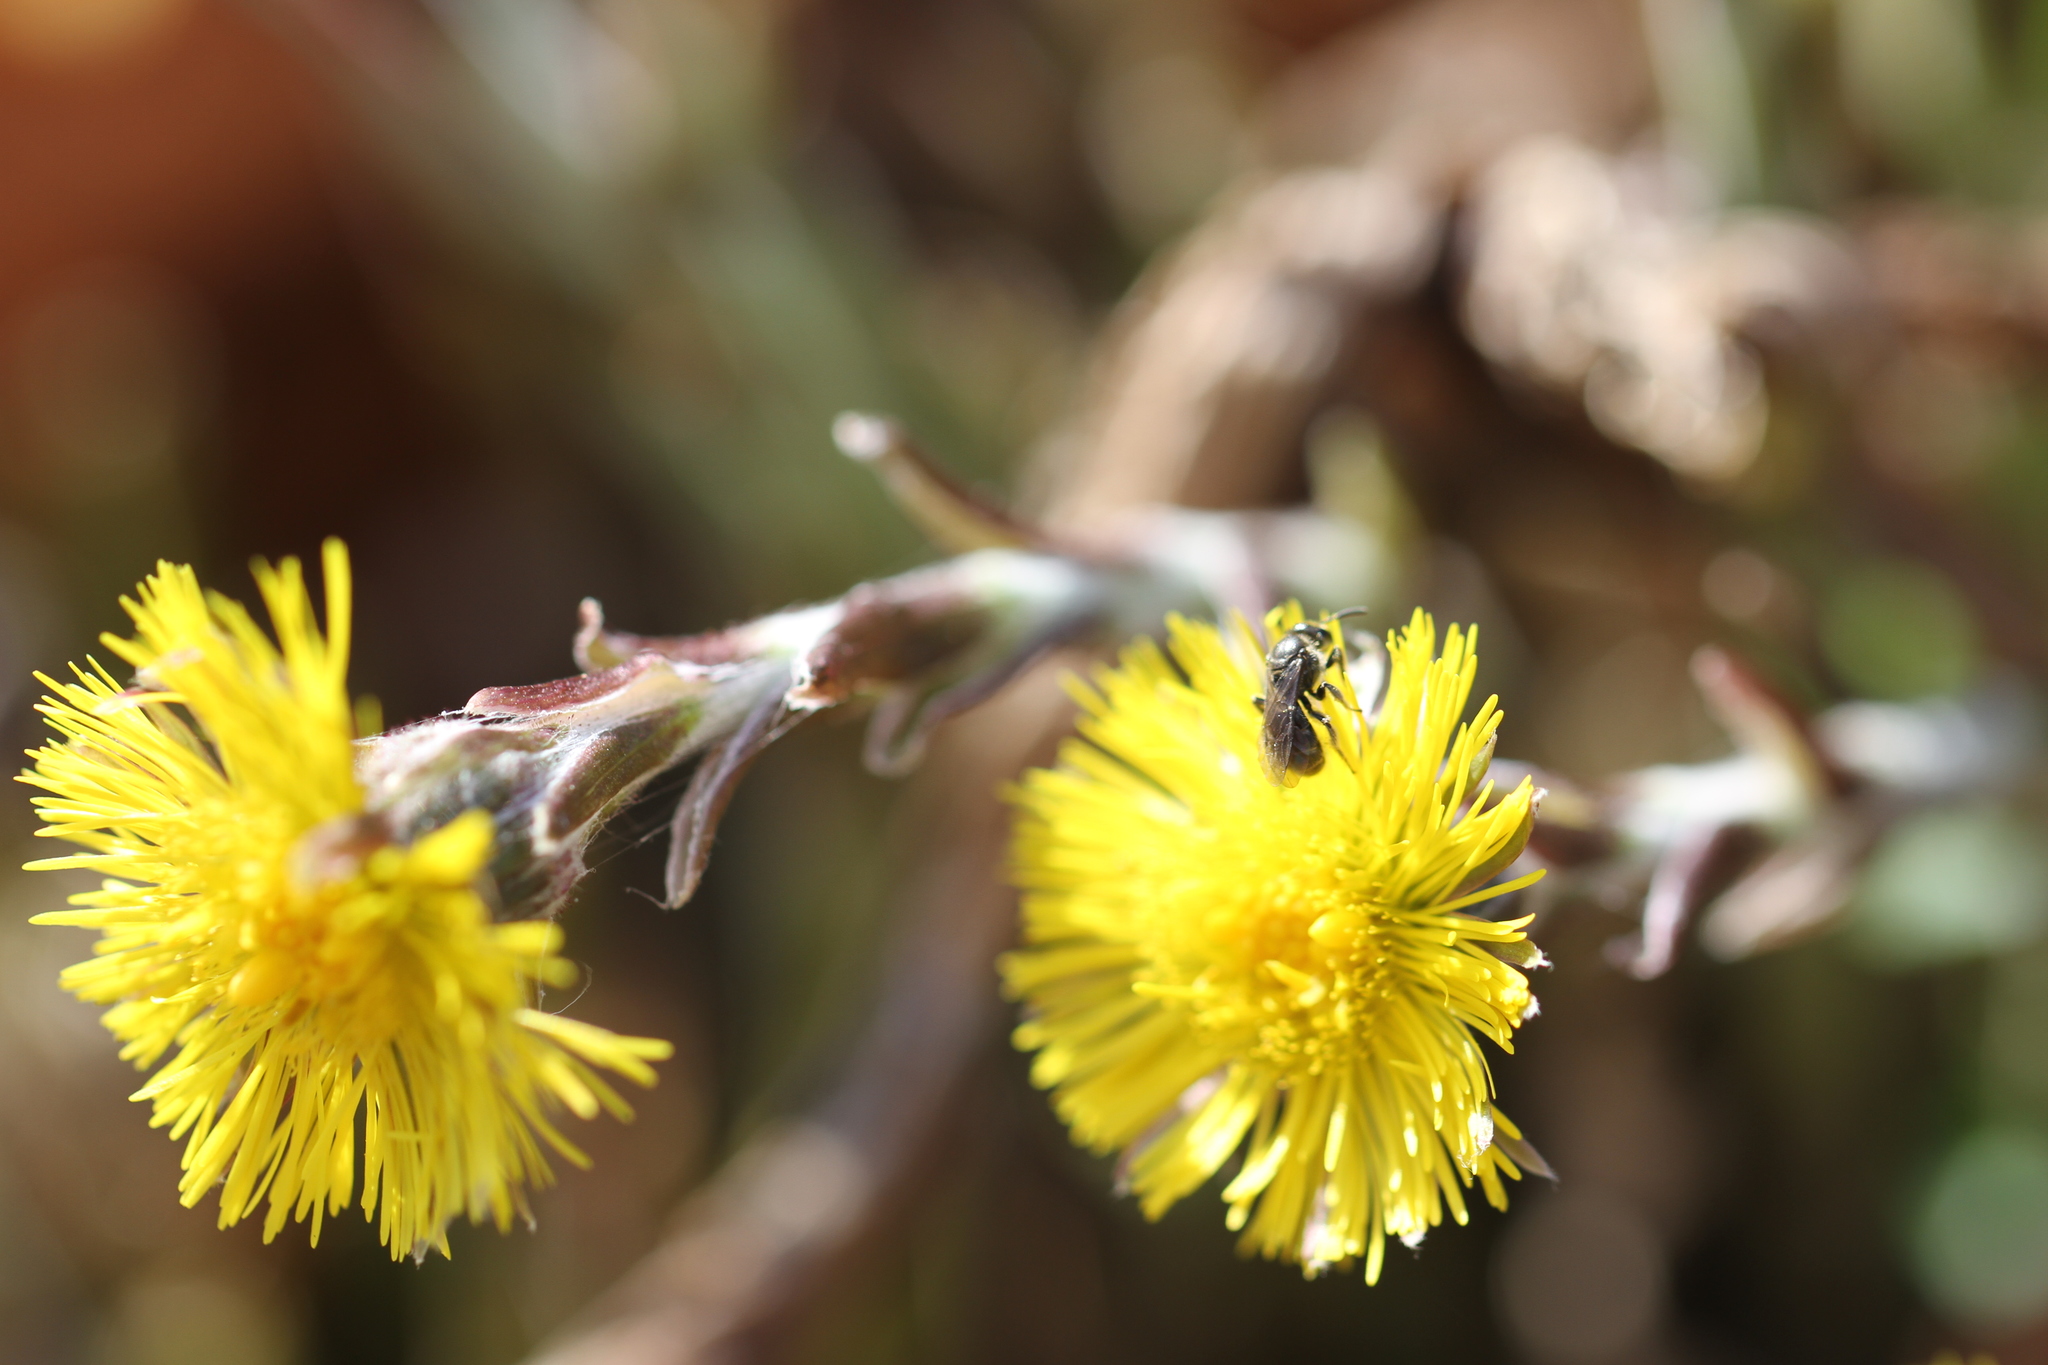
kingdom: Plantae
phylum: Tracheophyta
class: Magnoliopsida
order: Asterales
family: Asteraceae
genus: Tussilago
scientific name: Tussilago farfara
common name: Coltsfoot
